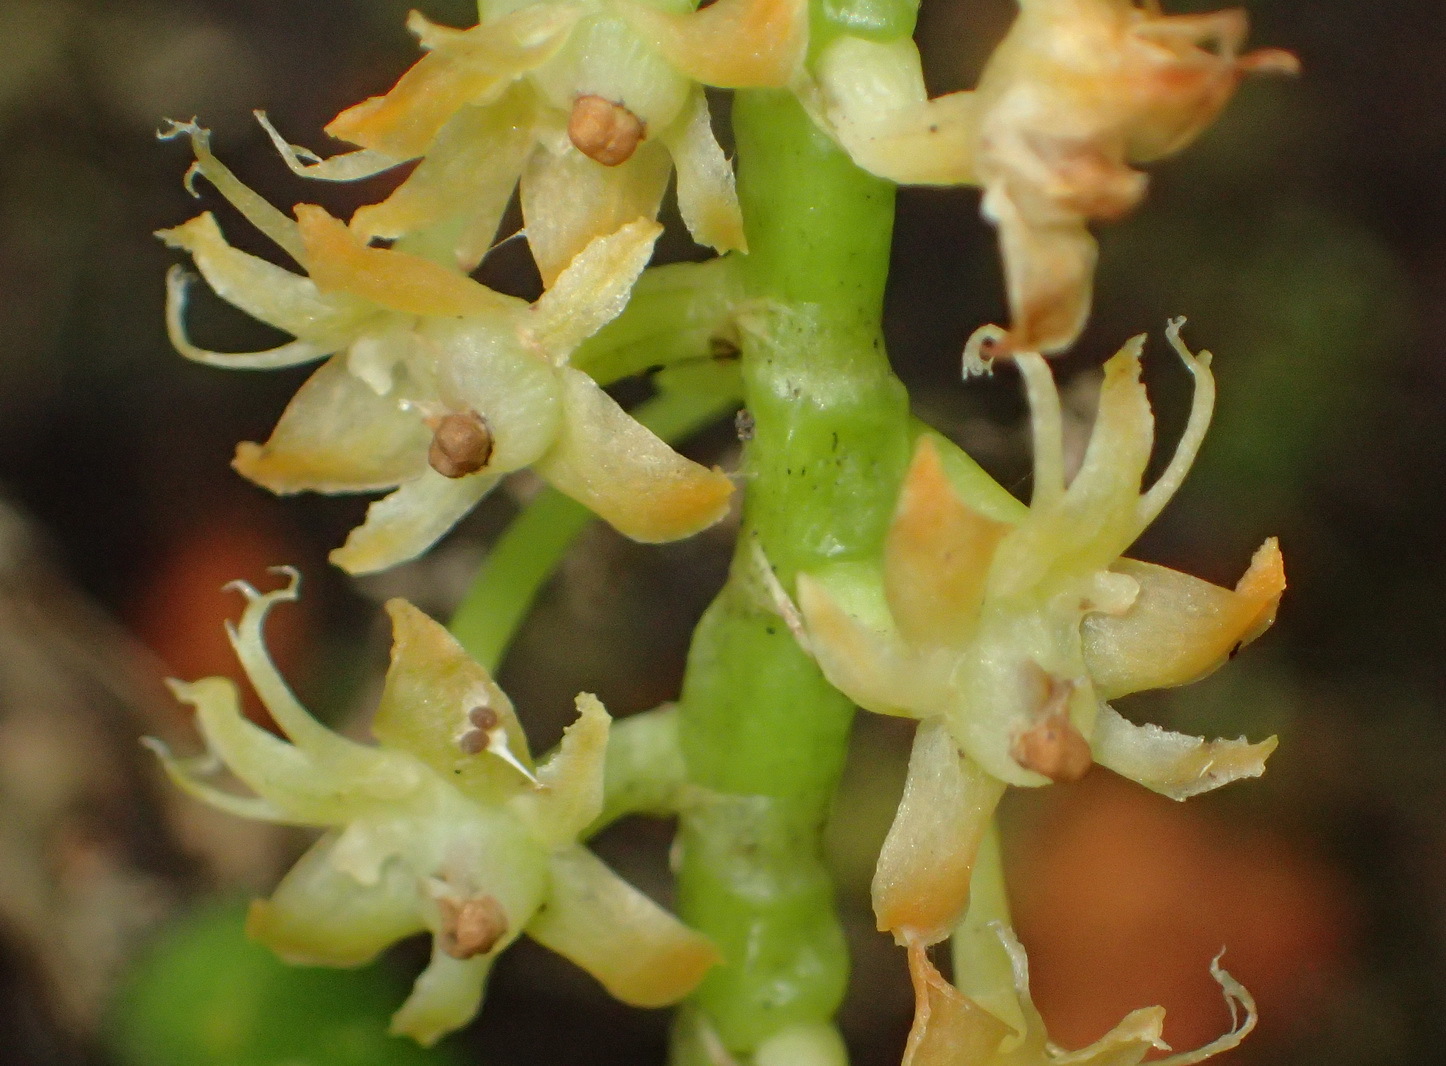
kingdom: Plantae
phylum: Tracheophyta
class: Liliopsida
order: Asparagales
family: Orchidaceae
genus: Tridactyle
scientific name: Tridactyle bicaudata
